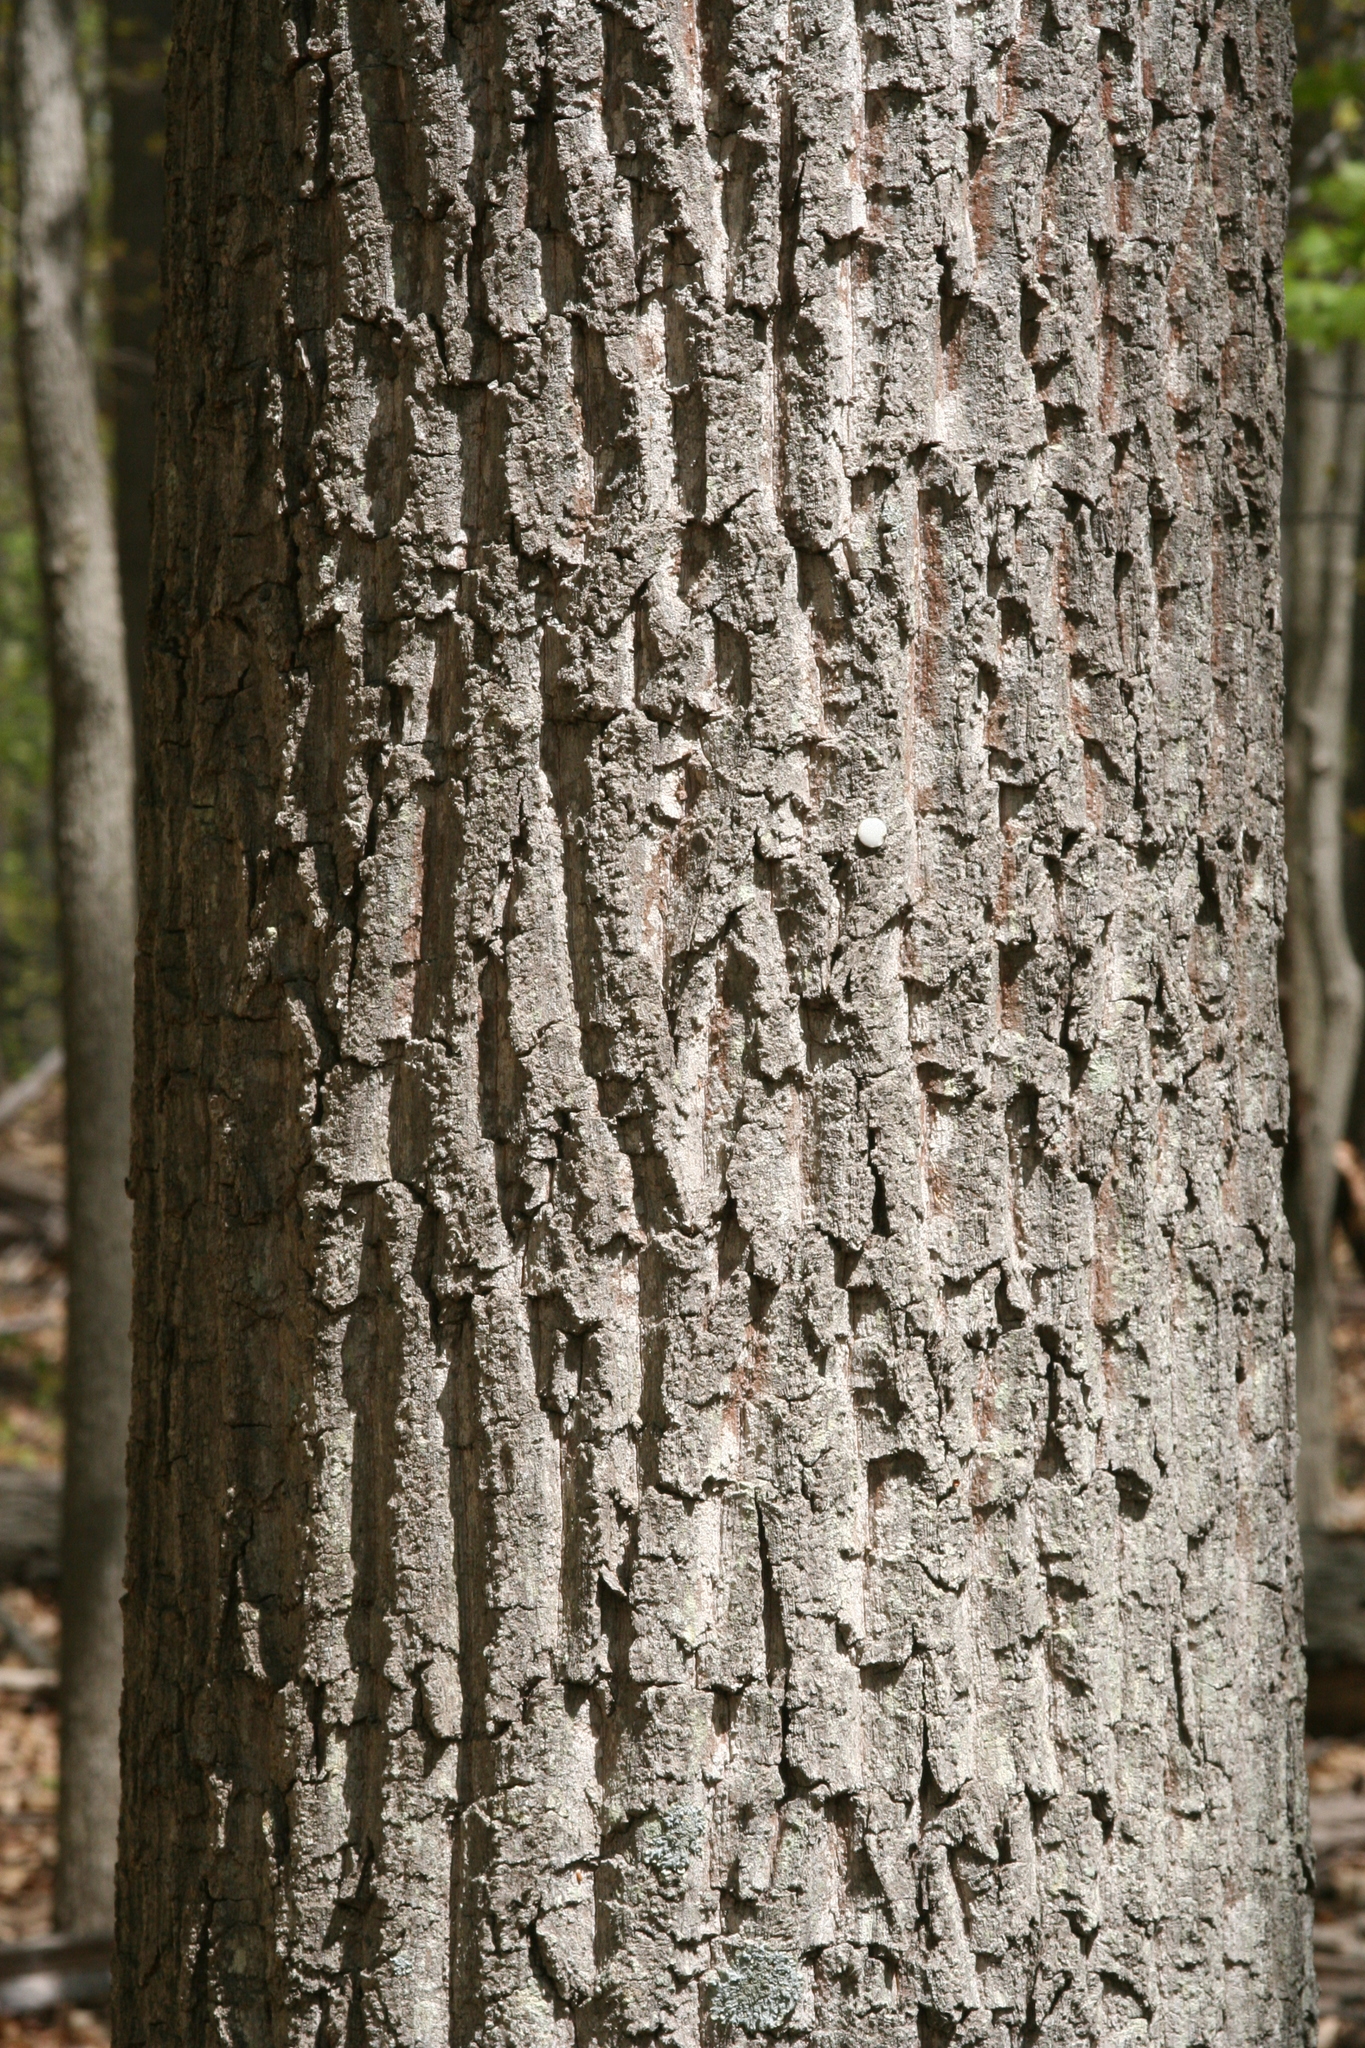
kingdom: Plantae
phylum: Tracheophyta
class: Magnoliopsida
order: Fagales
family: Fagaceae
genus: Quercus
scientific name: Quercus montana
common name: Chestnut oak
